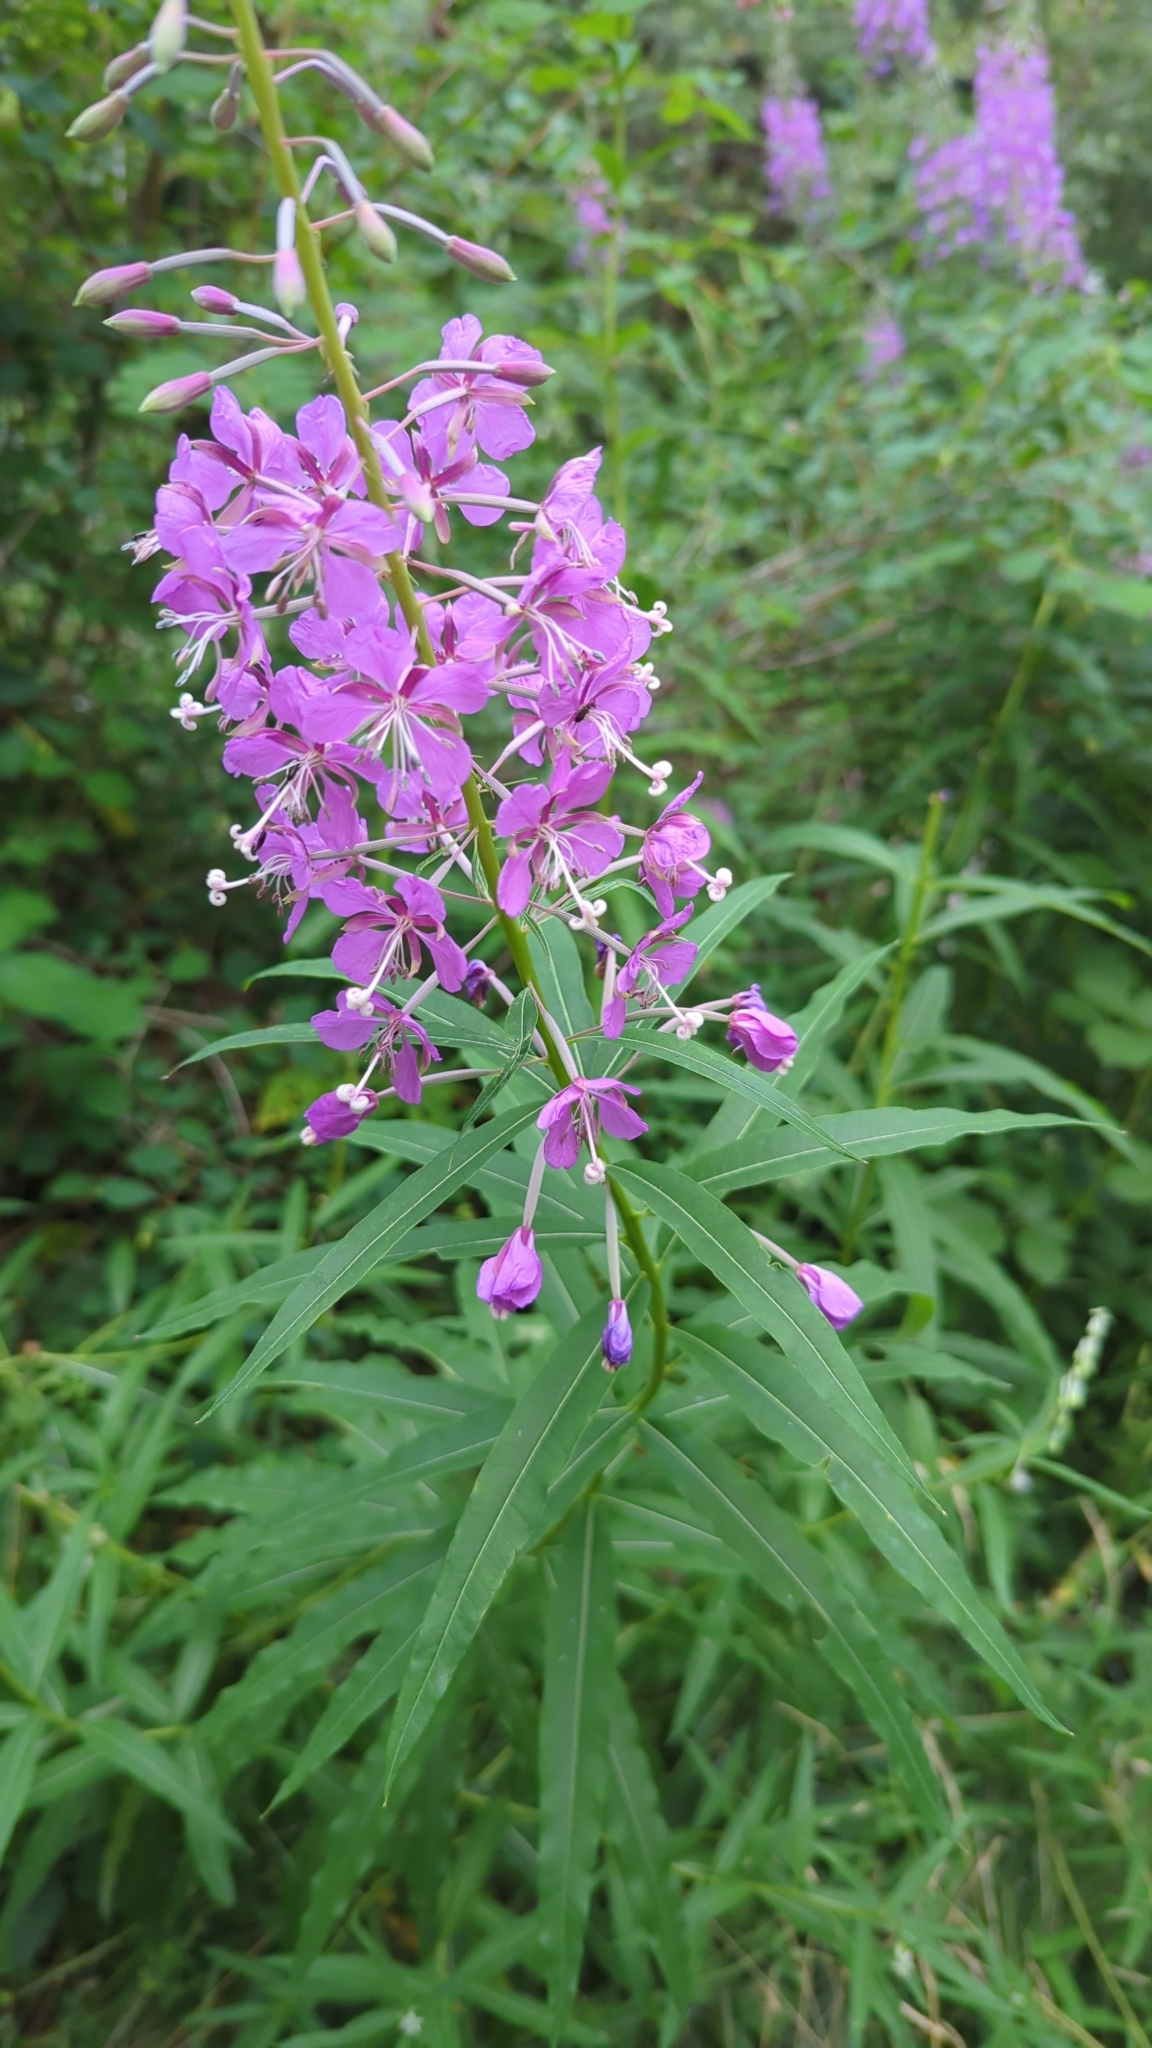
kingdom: Plantae
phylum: Tracheophyta
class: Magnoliopsida
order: Myrtales
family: Onagraceae
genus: Chamaenerion
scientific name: Chamaenerion angustifolium
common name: Fireweed
